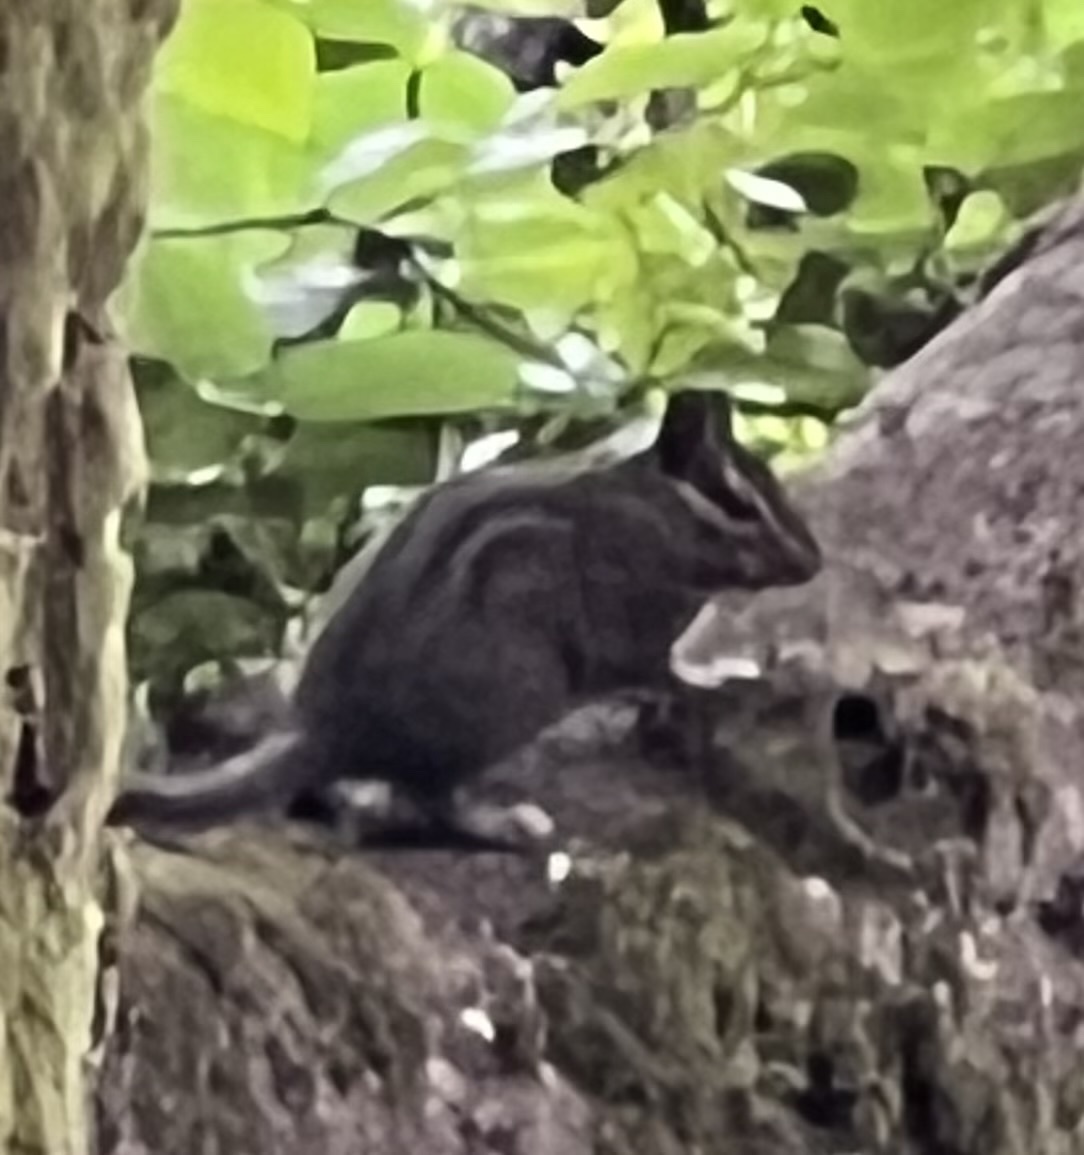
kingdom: Animalia
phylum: Chordata
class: Mammalia
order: Rodentia
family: Sciuridae
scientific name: Sciuridae
